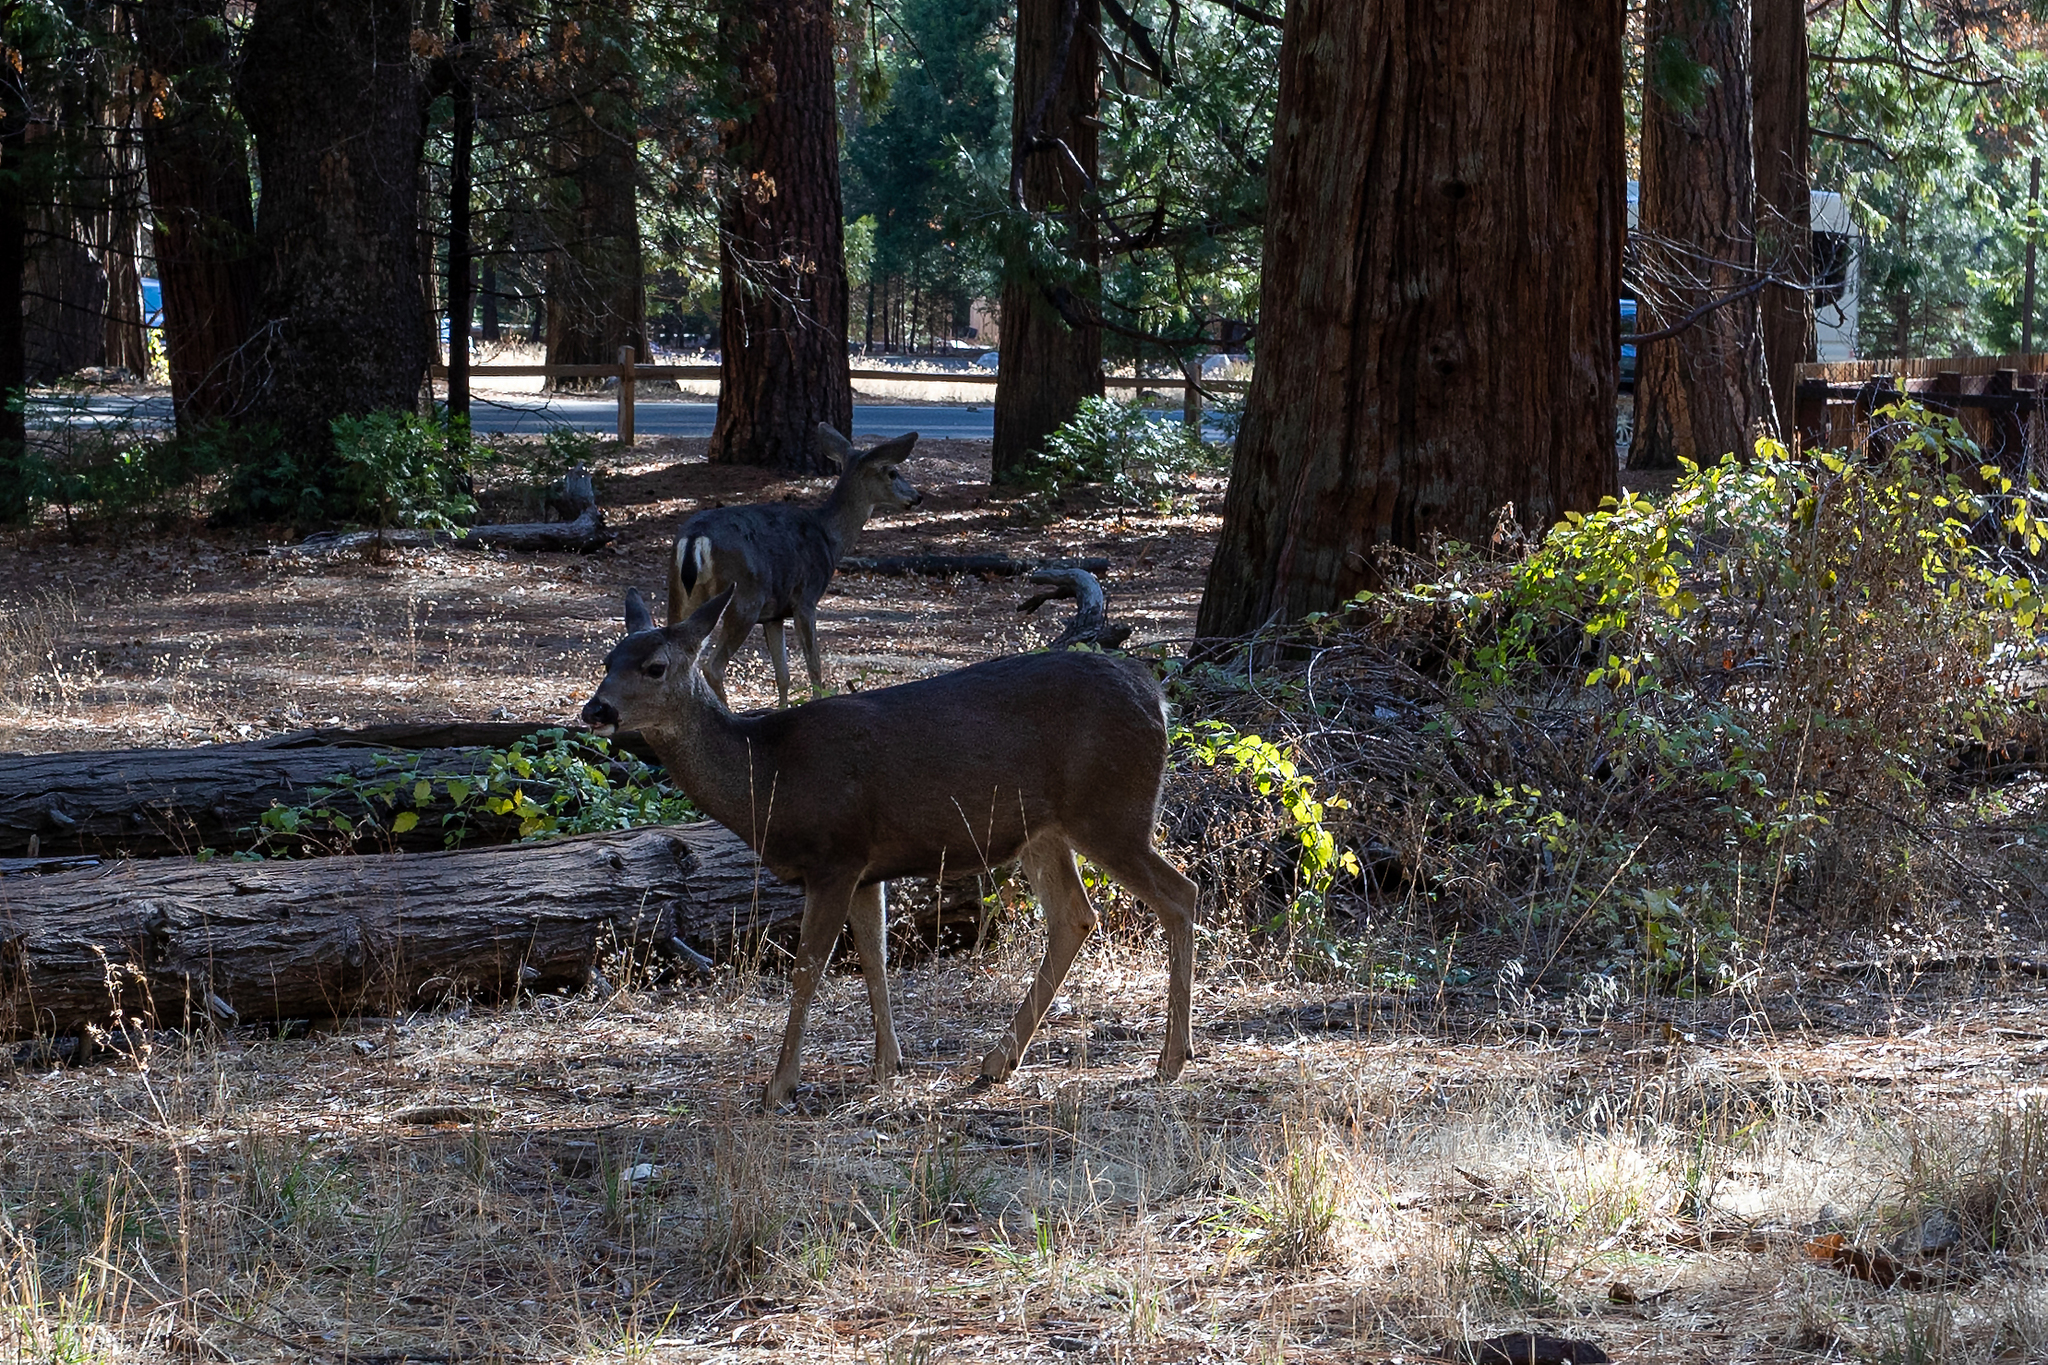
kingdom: Animalia
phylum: Chordata
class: Mammalia
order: Artiodactyla
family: Cervidae
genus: Odocoileus
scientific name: Odocoileus hemionus
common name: Mule deer
